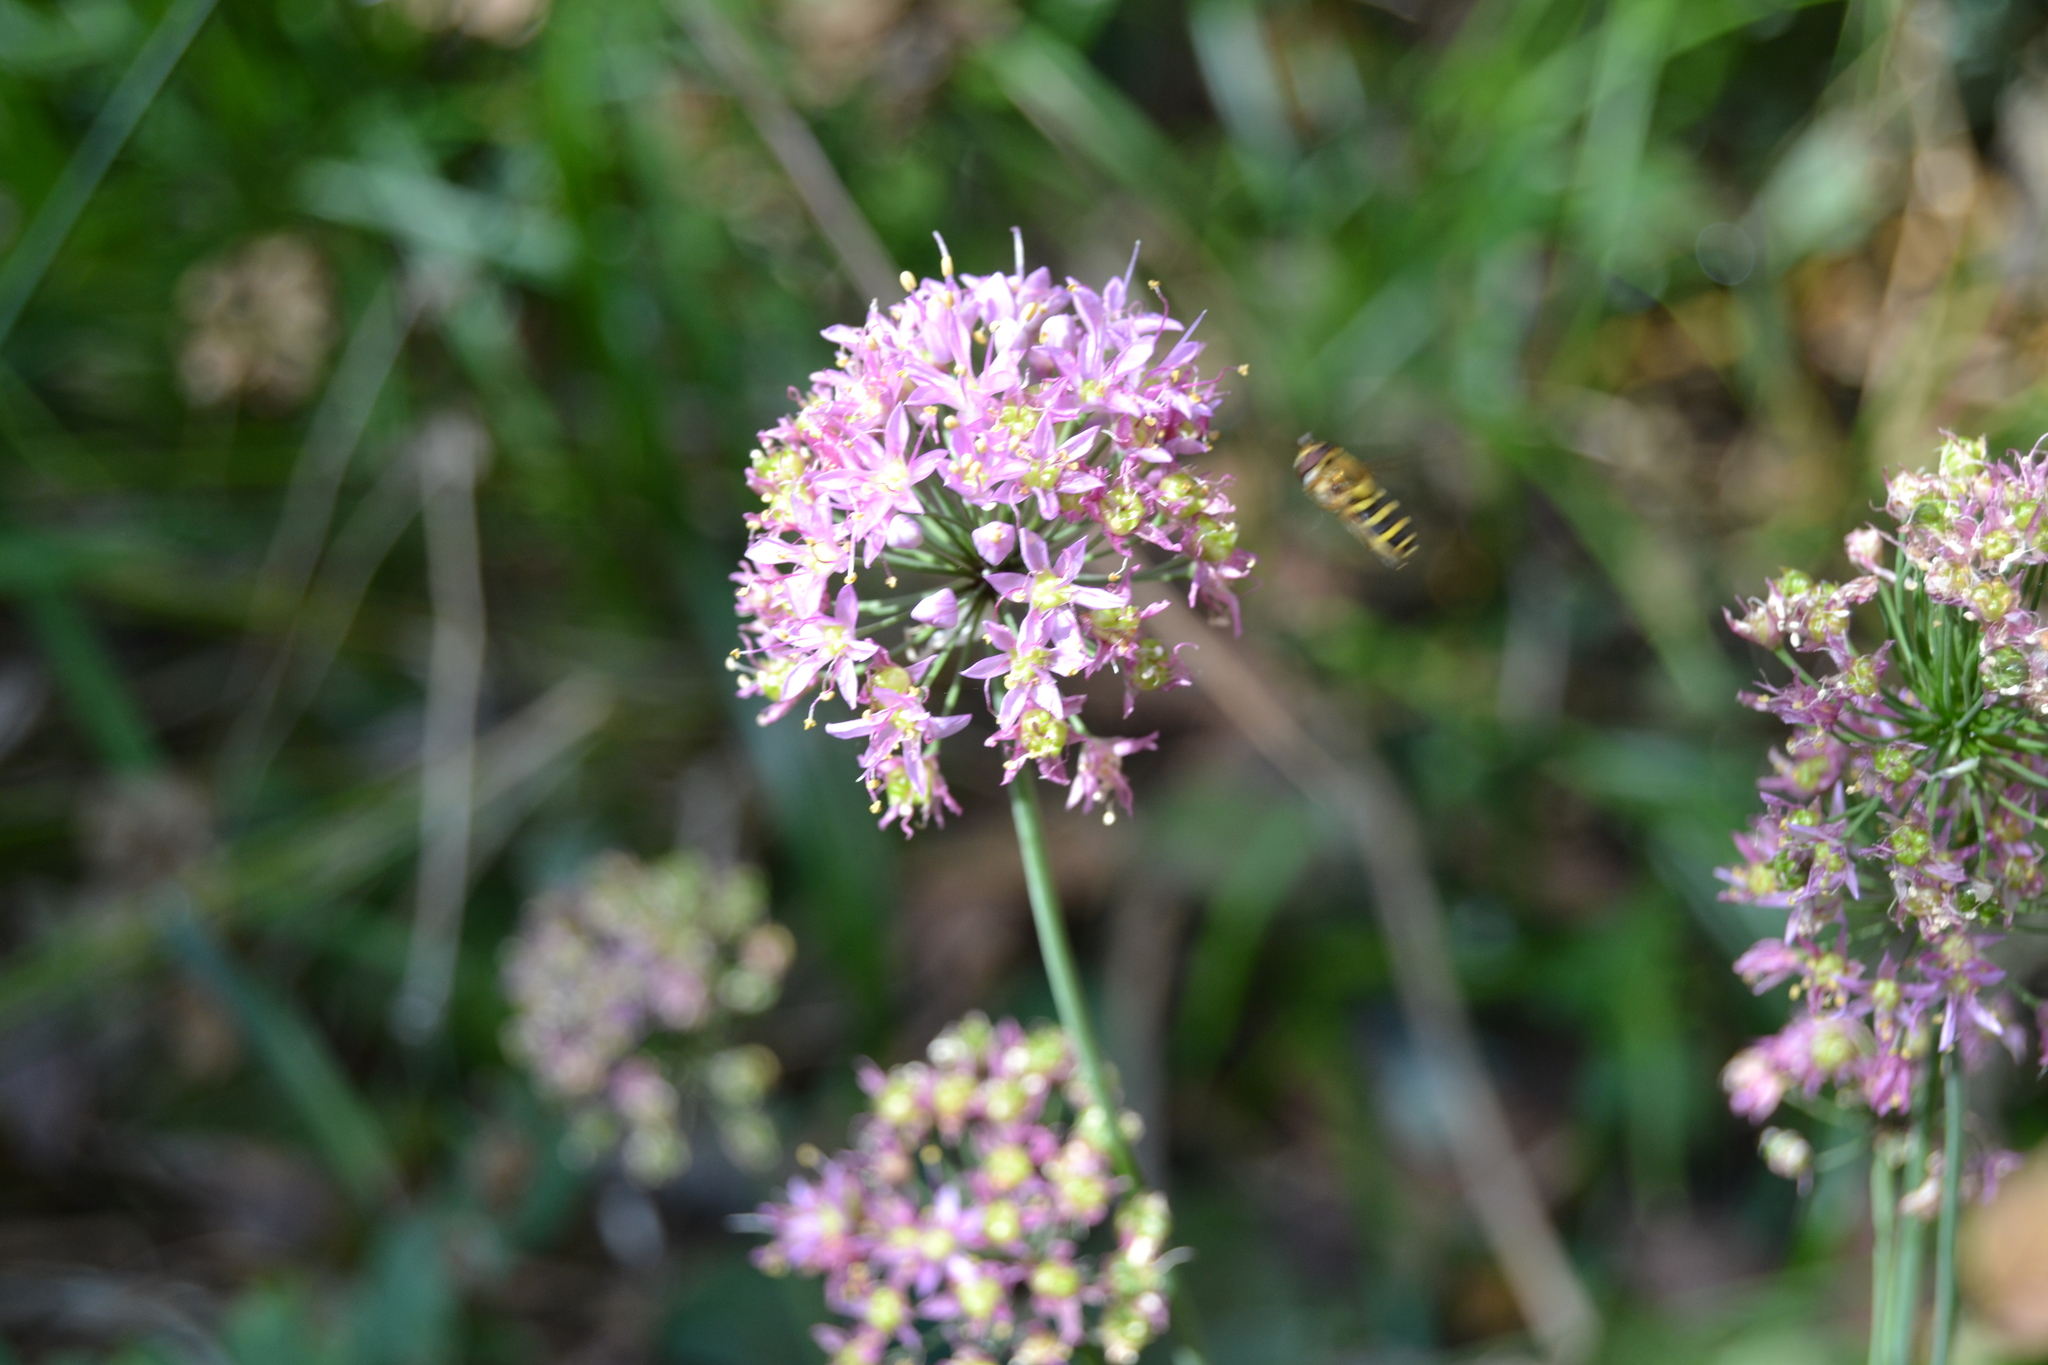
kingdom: Plantae
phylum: Tracheophyta
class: Liliopsida
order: Asparagales
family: Amaryllidaceae
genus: Allium
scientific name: Allium stellatum
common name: Autumn onion
